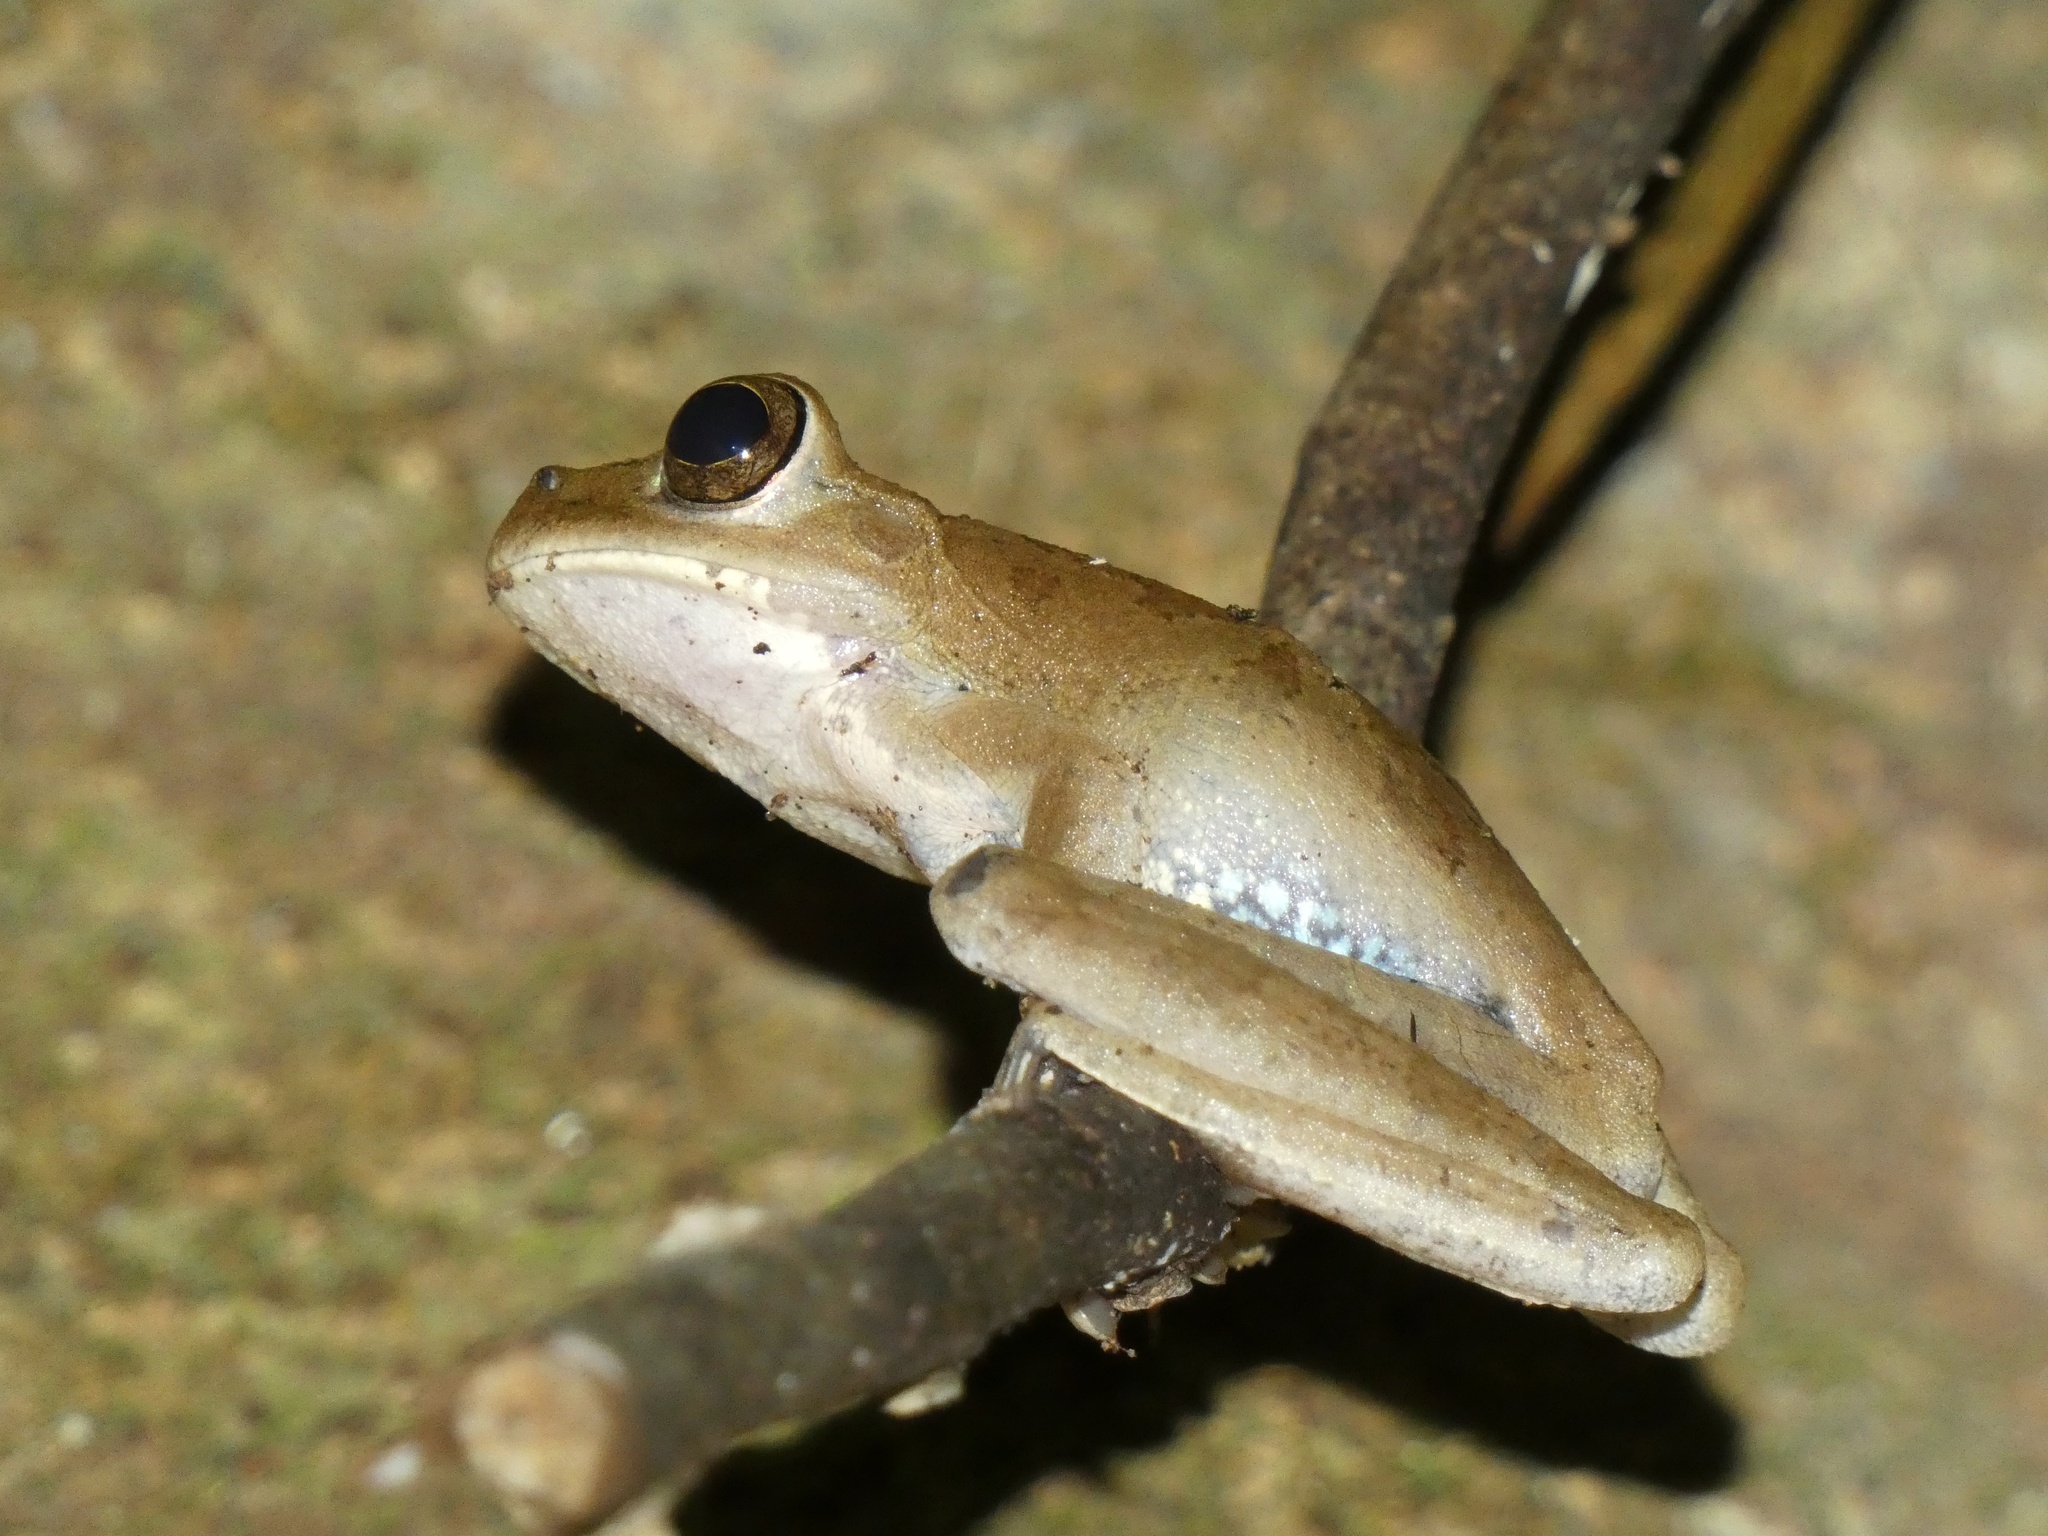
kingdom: Animalia
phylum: Chordata
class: Amphibia
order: Anura
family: Hylidae
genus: Smilisca
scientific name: Smilisca sila
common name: Panama cross-banded treefrog
